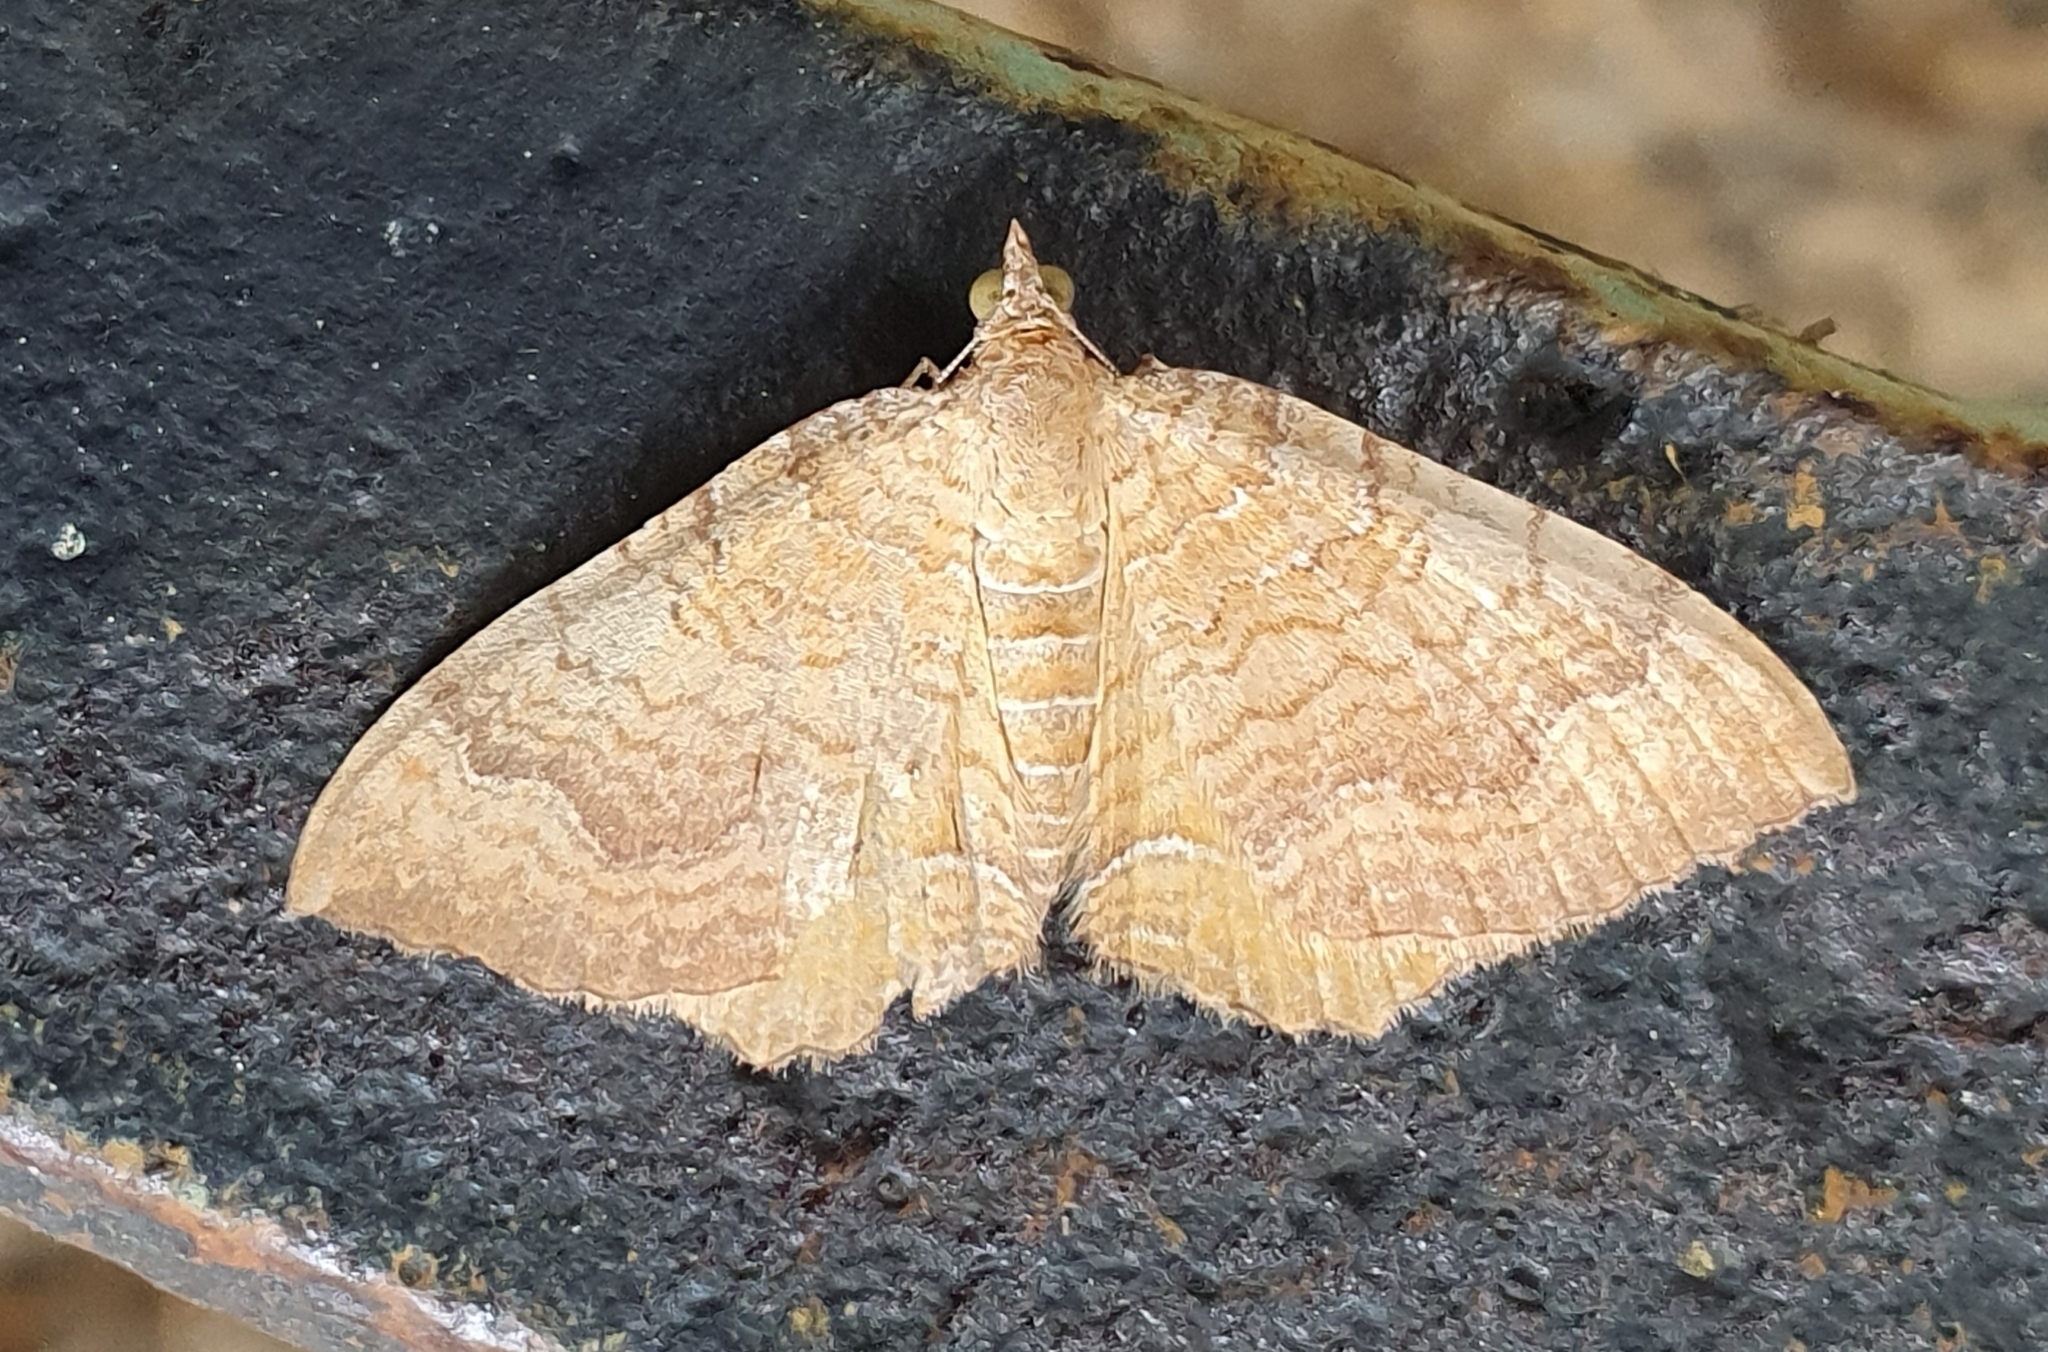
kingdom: Animalia
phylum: Arthropoda
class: Insecta
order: Lepidoptera
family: Geometridae
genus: Camptogramma
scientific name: Camptogramma bilineata
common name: Yellow shell
